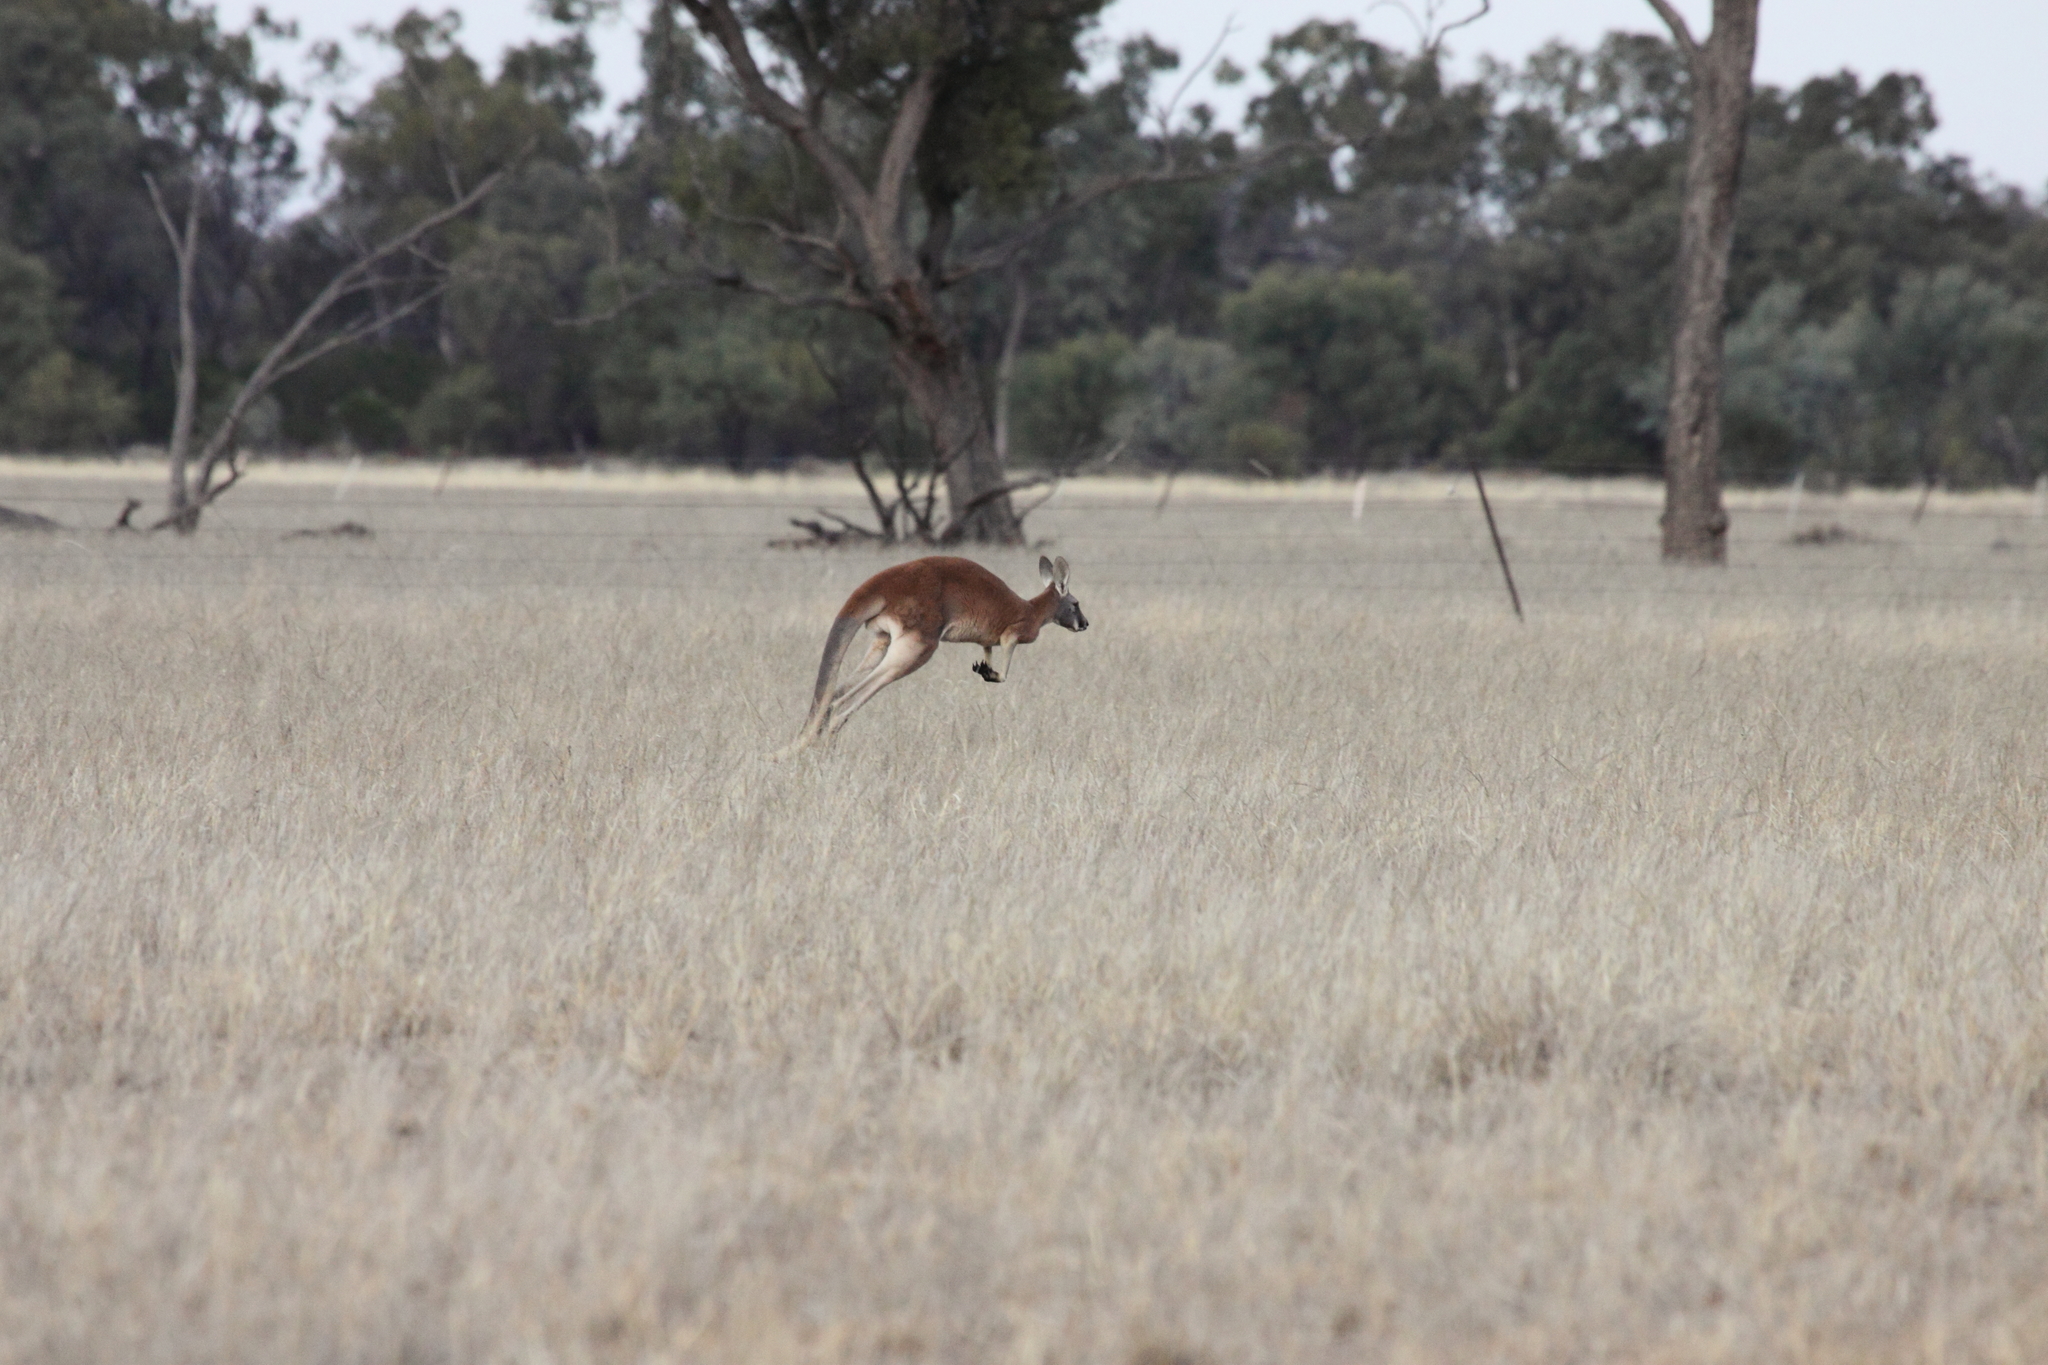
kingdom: Animalia
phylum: Chordata
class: Mammalia
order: Diprotodontia
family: Macropodidae
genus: Macropus
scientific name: Macropus rufus
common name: Red kangaroo
